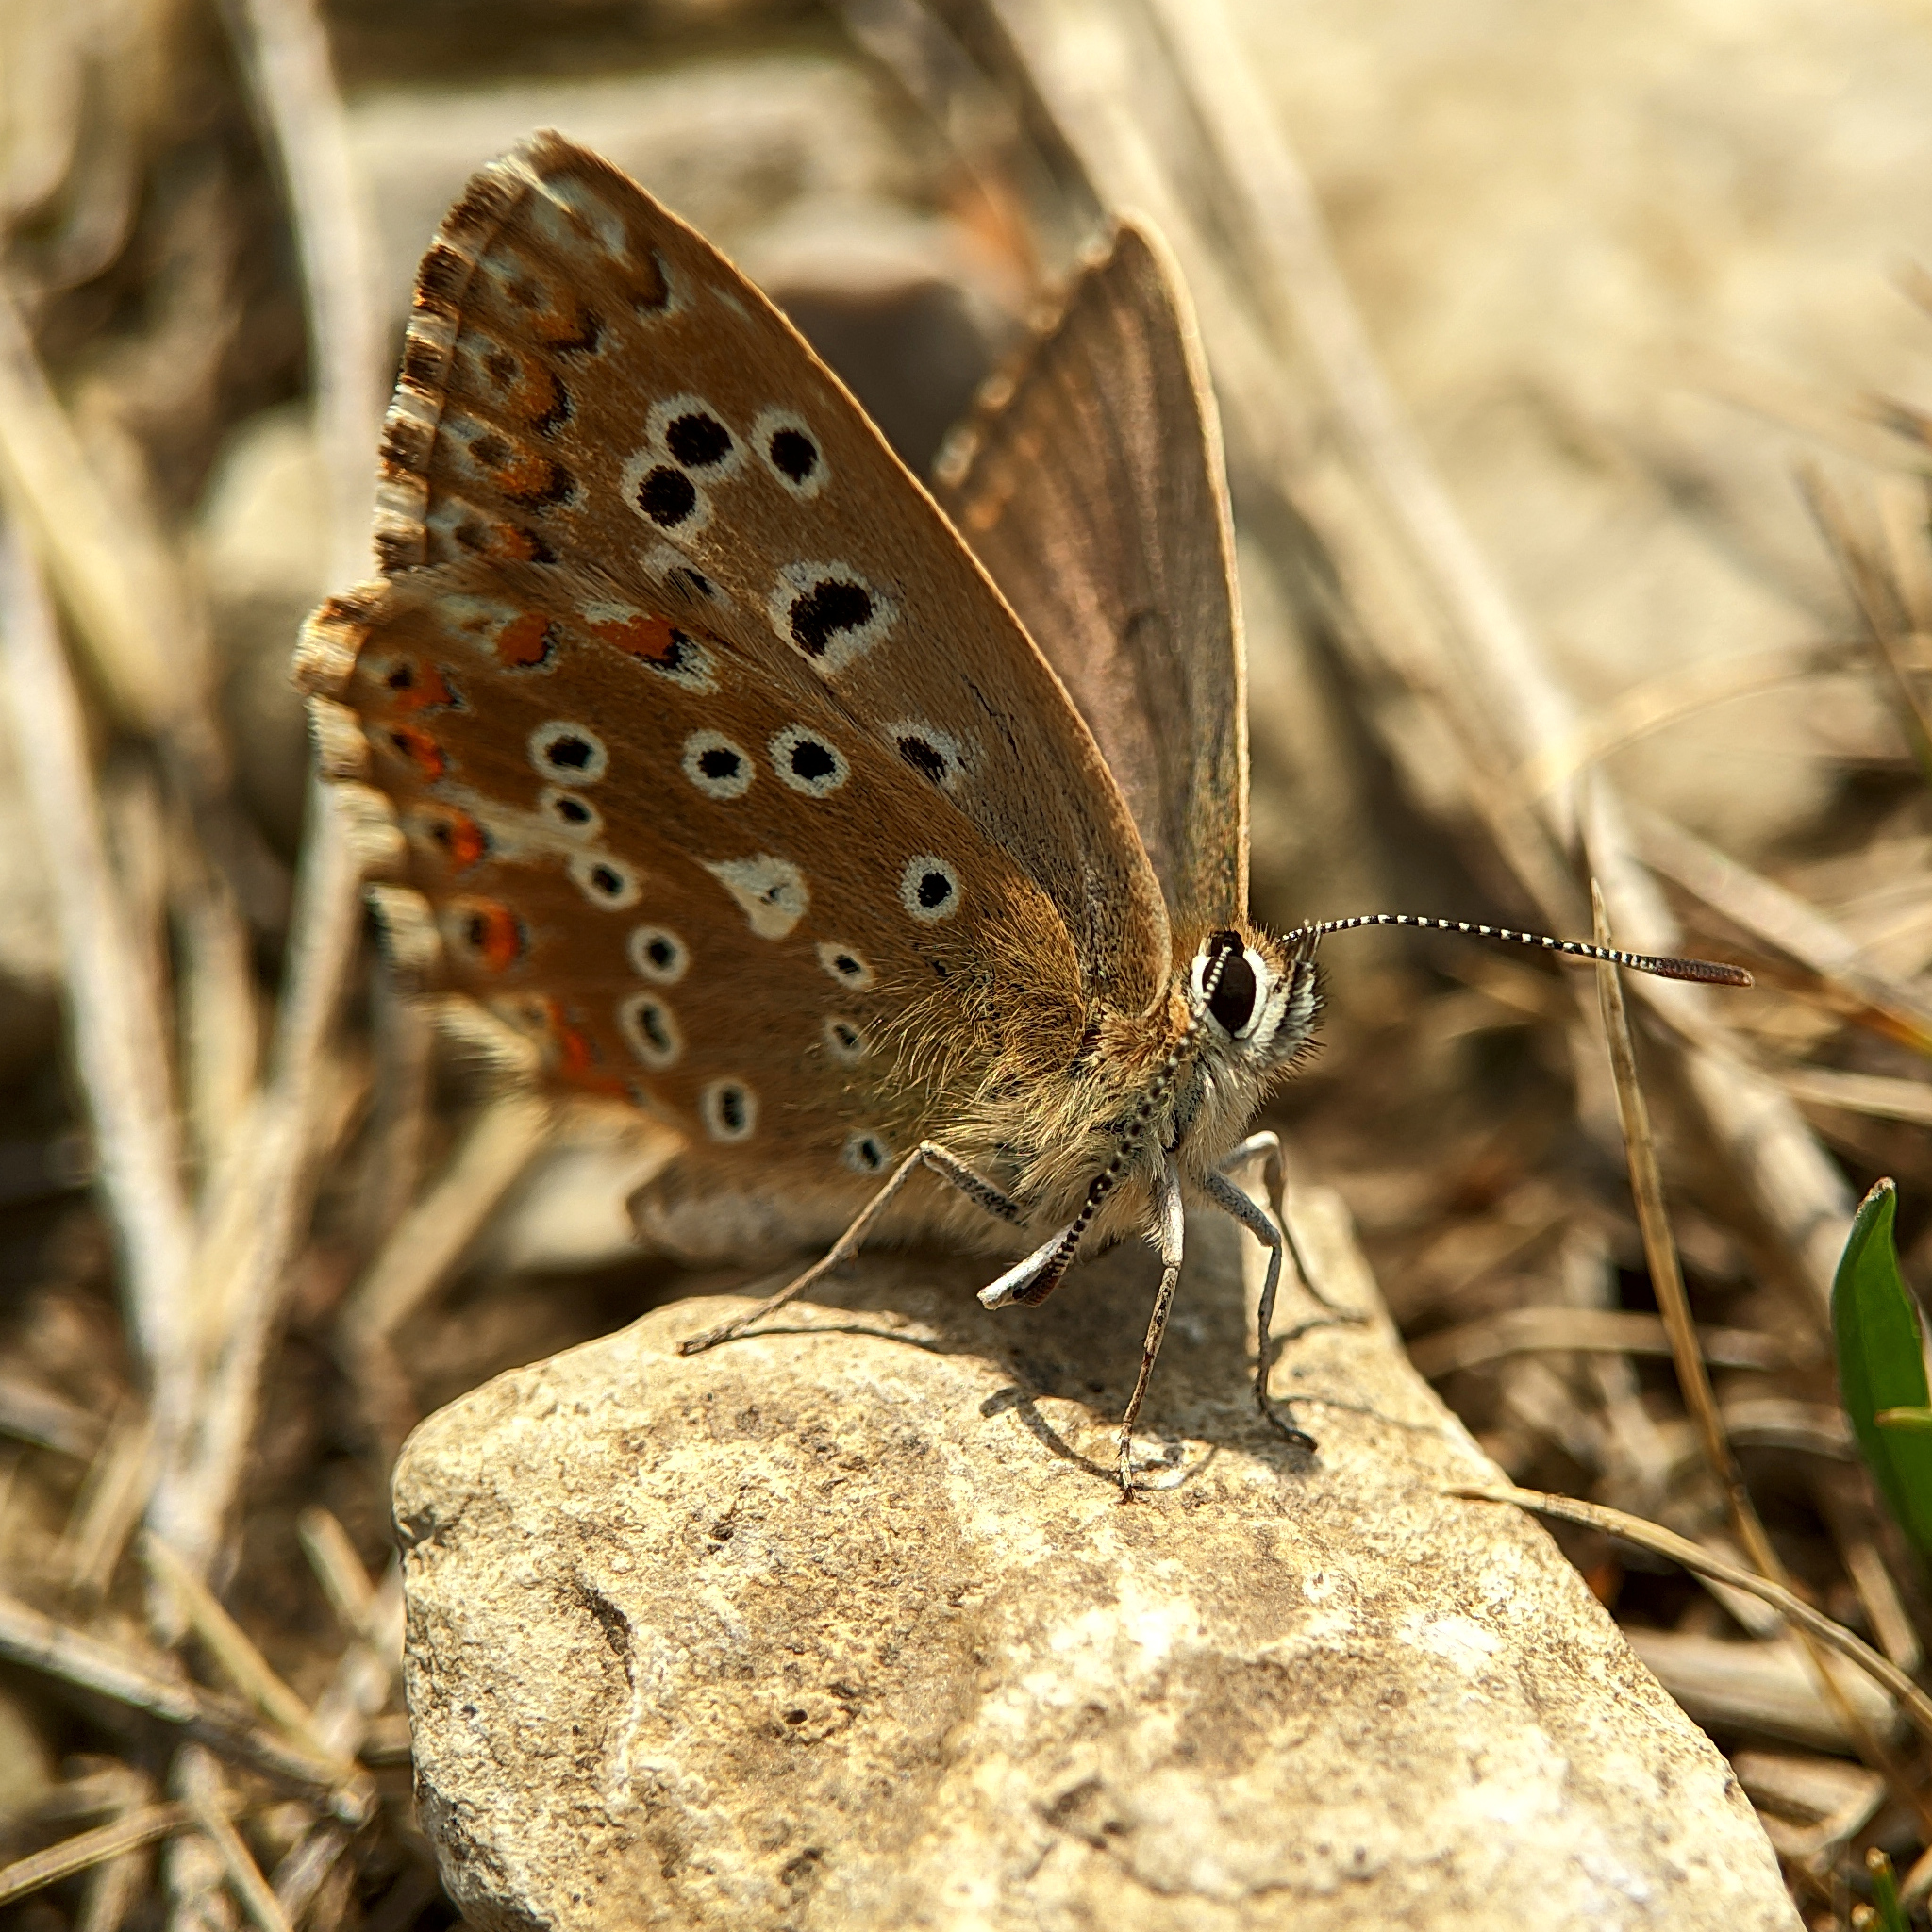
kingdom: Animalia
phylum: Arthropoda
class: Insecta
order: Lepidoptera
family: Lycaenidae
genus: Lysandra
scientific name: Lysandra coridon
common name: Chalkhill blue
